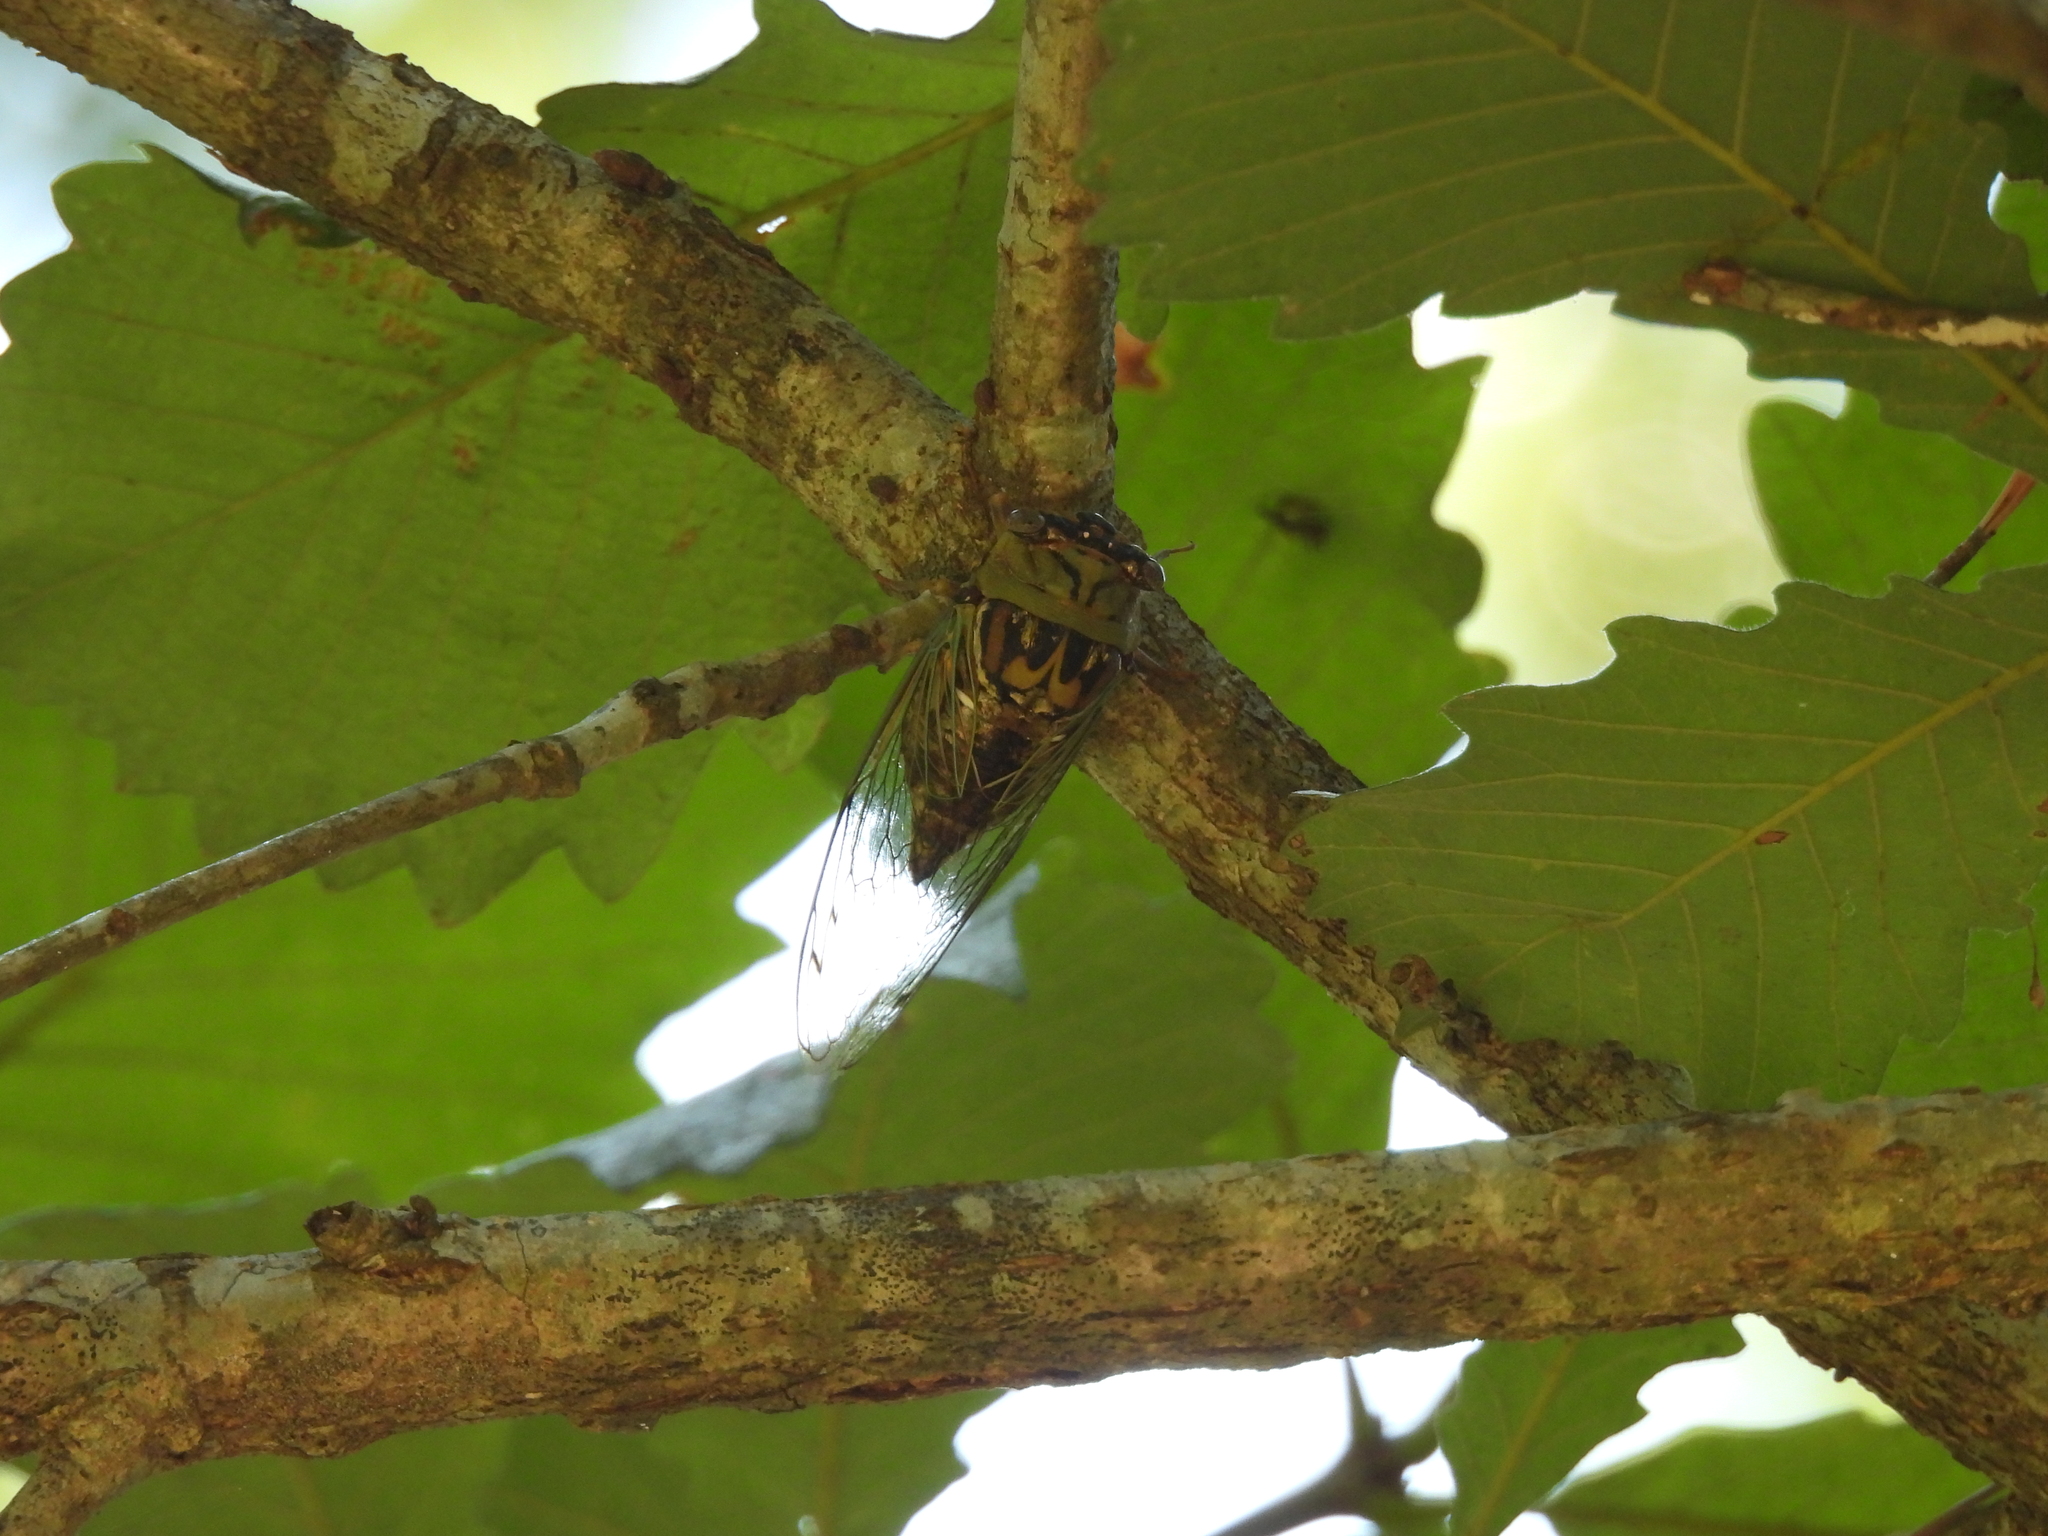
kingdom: Animalia
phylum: Arthropoda
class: Insecta
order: Hemiptera
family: Cicadidae
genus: Megatibicen
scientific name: Megatibicen resh
